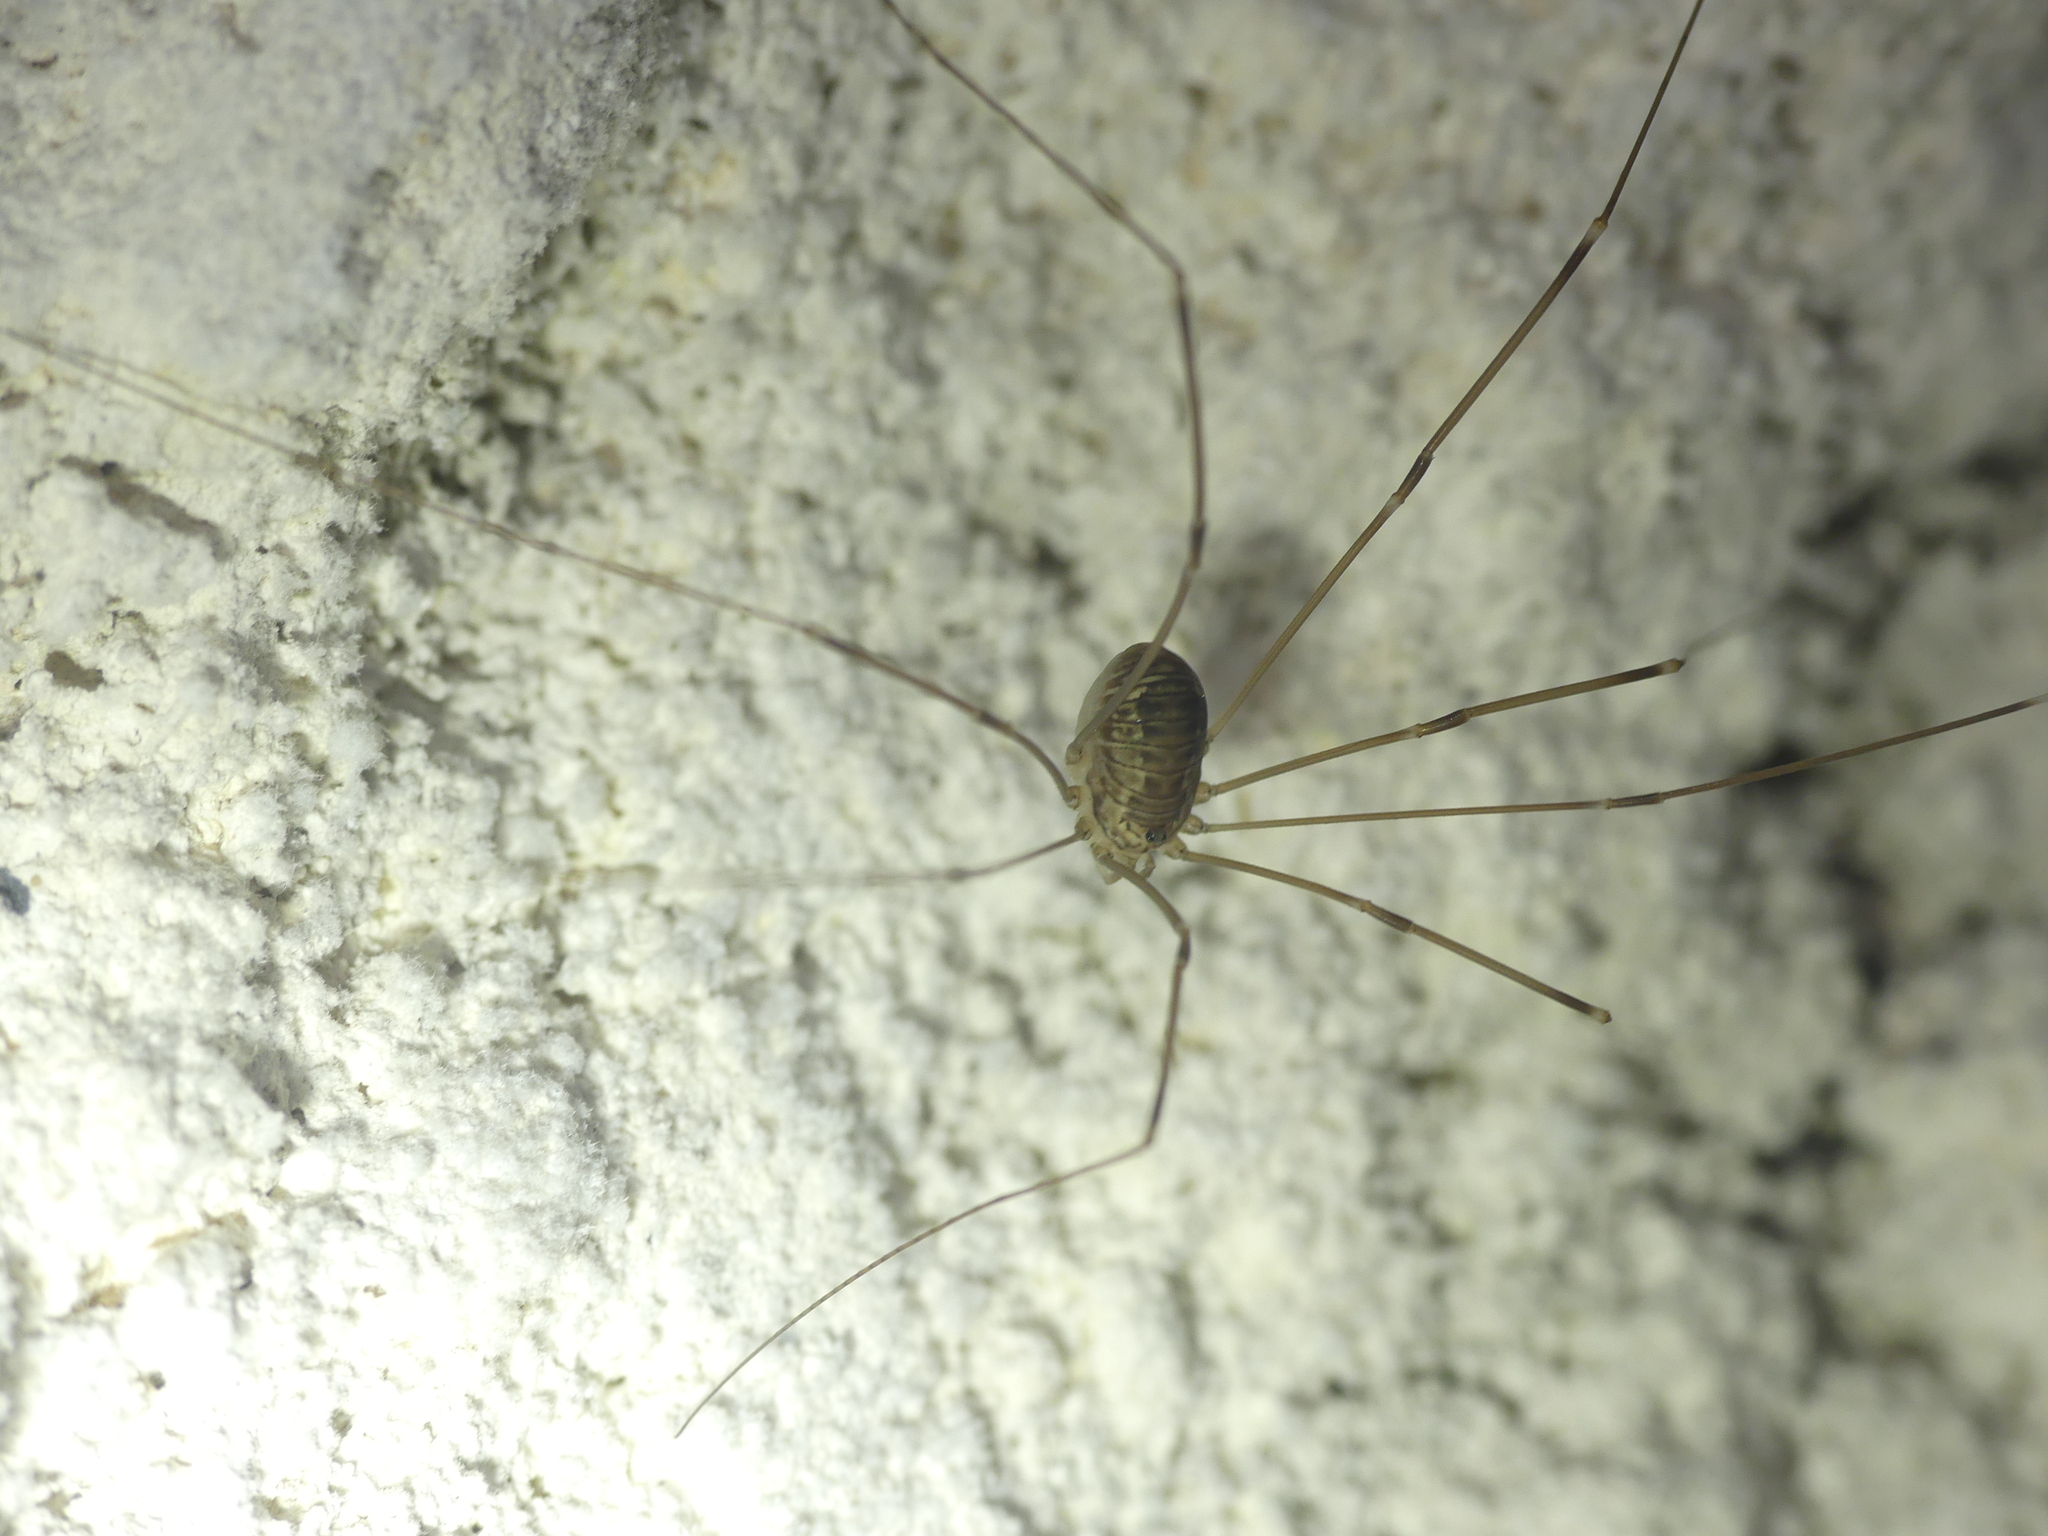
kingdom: Animalia
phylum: Arthropoda
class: Arachnida
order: Opiliones
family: Sclerosomatidae
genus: Leiobunum
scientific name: Leiobunum limbatum
